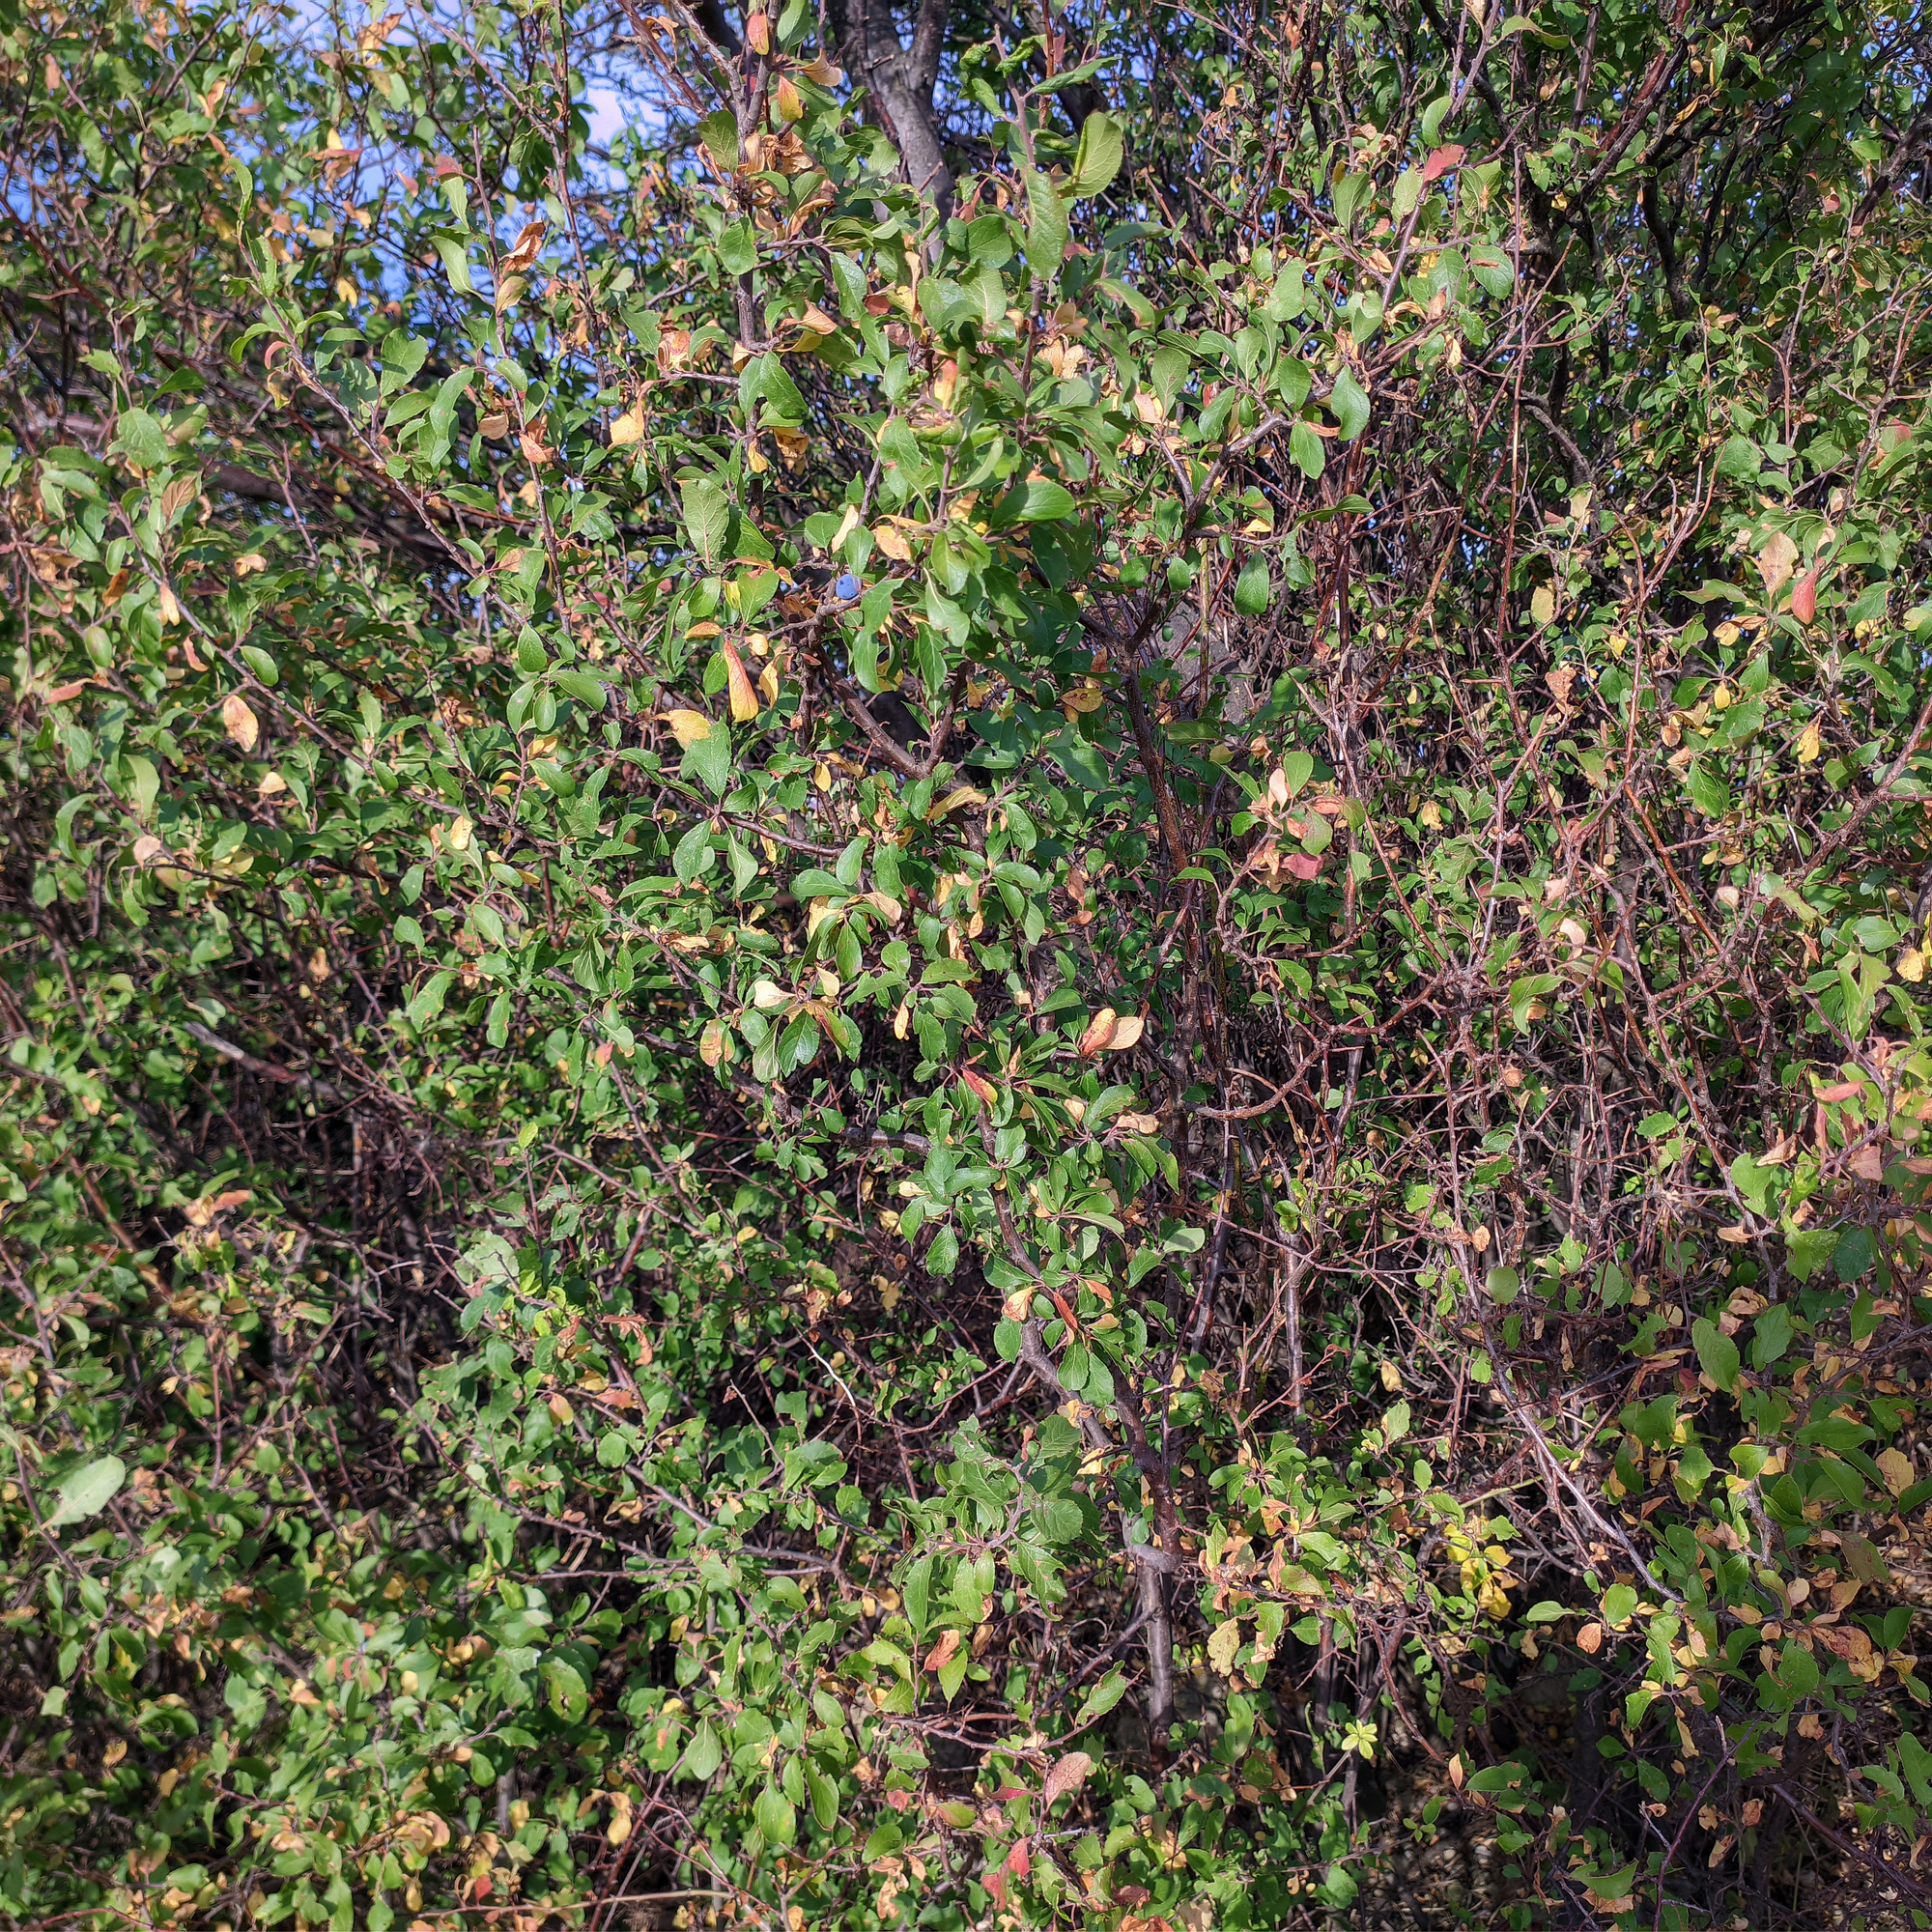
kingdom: Plantae
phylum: Tracheophyta
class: Magnoliopsida
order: Rosales
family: Rosaceae
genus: Prunus
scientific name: Prunus spinosa
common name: Blackthorn
